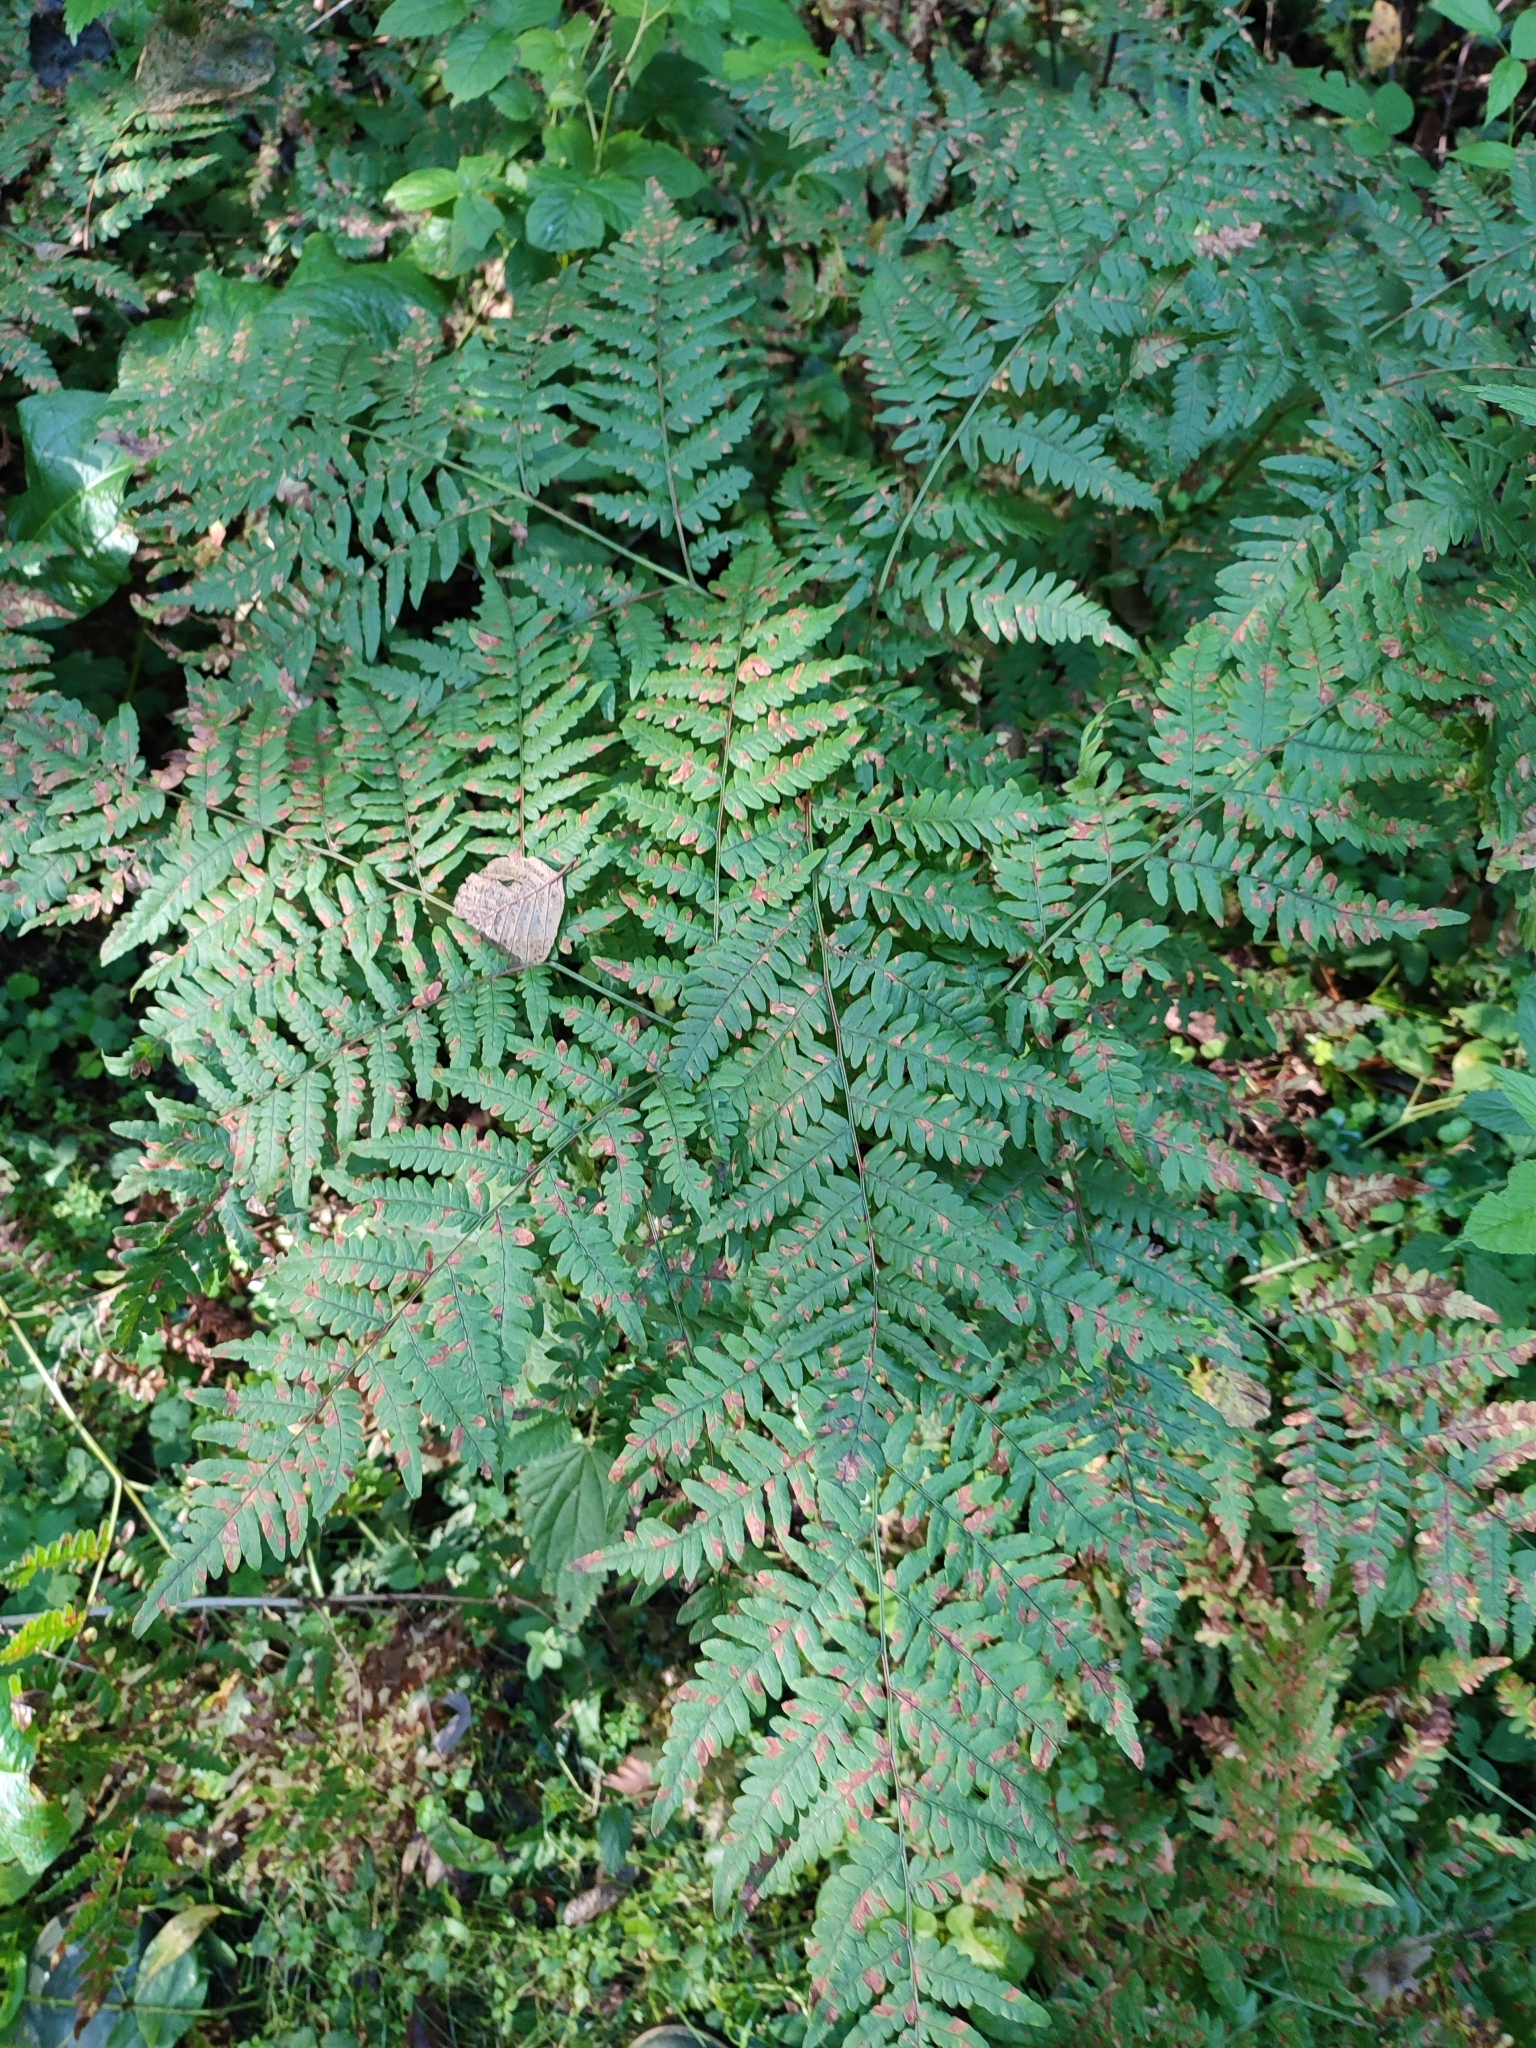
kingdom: Plantae
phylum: Tracheophyta
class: Polypodiopsida
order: Polypodiales
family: Dennstaedtiaceae
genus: Pteridium
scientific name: Pteridium aquilinum
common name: Bracken
